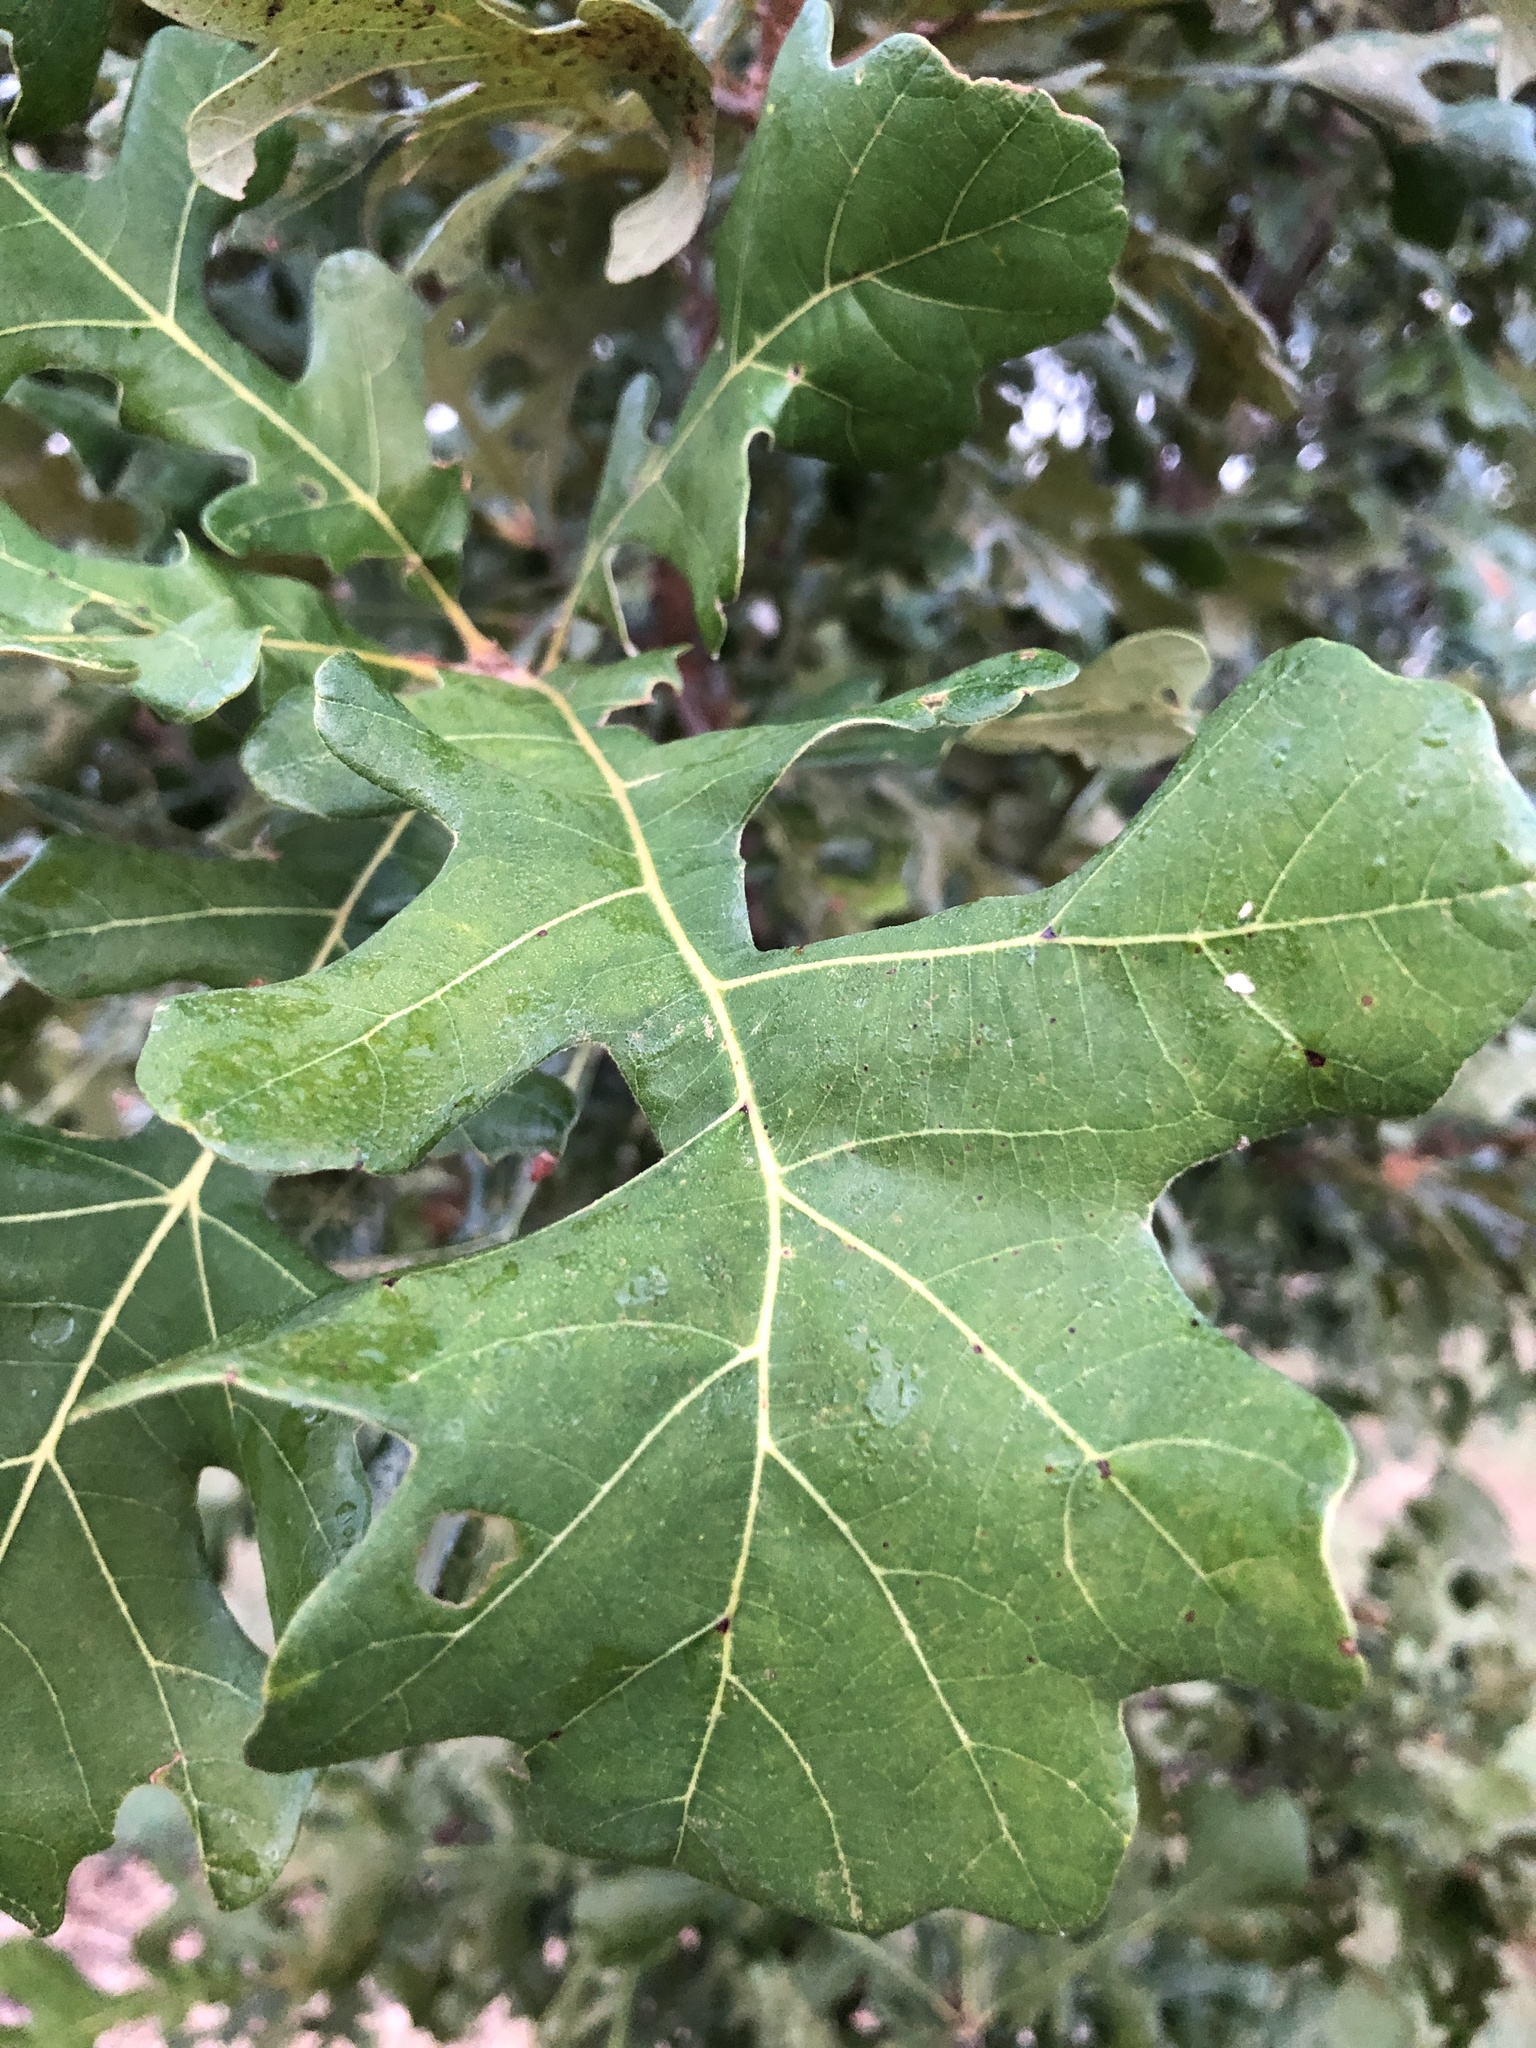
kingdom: Plantae
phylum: Tracheophyta
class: Magnoliopsida
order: Fagales
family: Fagaceae
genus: Quercus
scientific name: Quercus stellata
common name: Post oak
